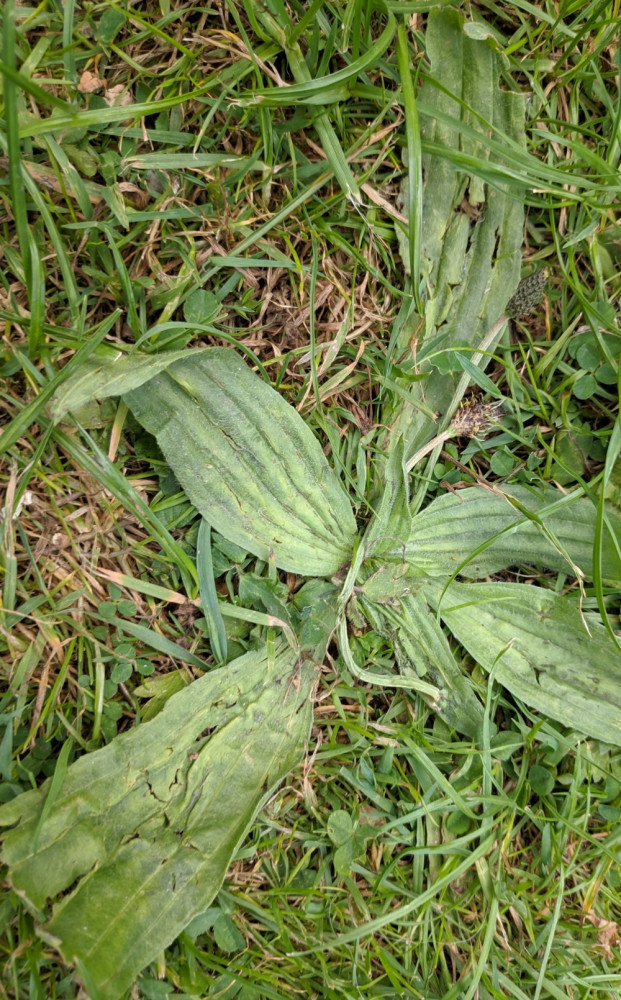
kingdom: Plantae
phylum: Tracheophyta
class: Magnoliopsida
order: Lamiales
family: Plantaginaceae
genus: Plantago
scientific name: Plantago lanceolata
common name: Ribwort plantain
